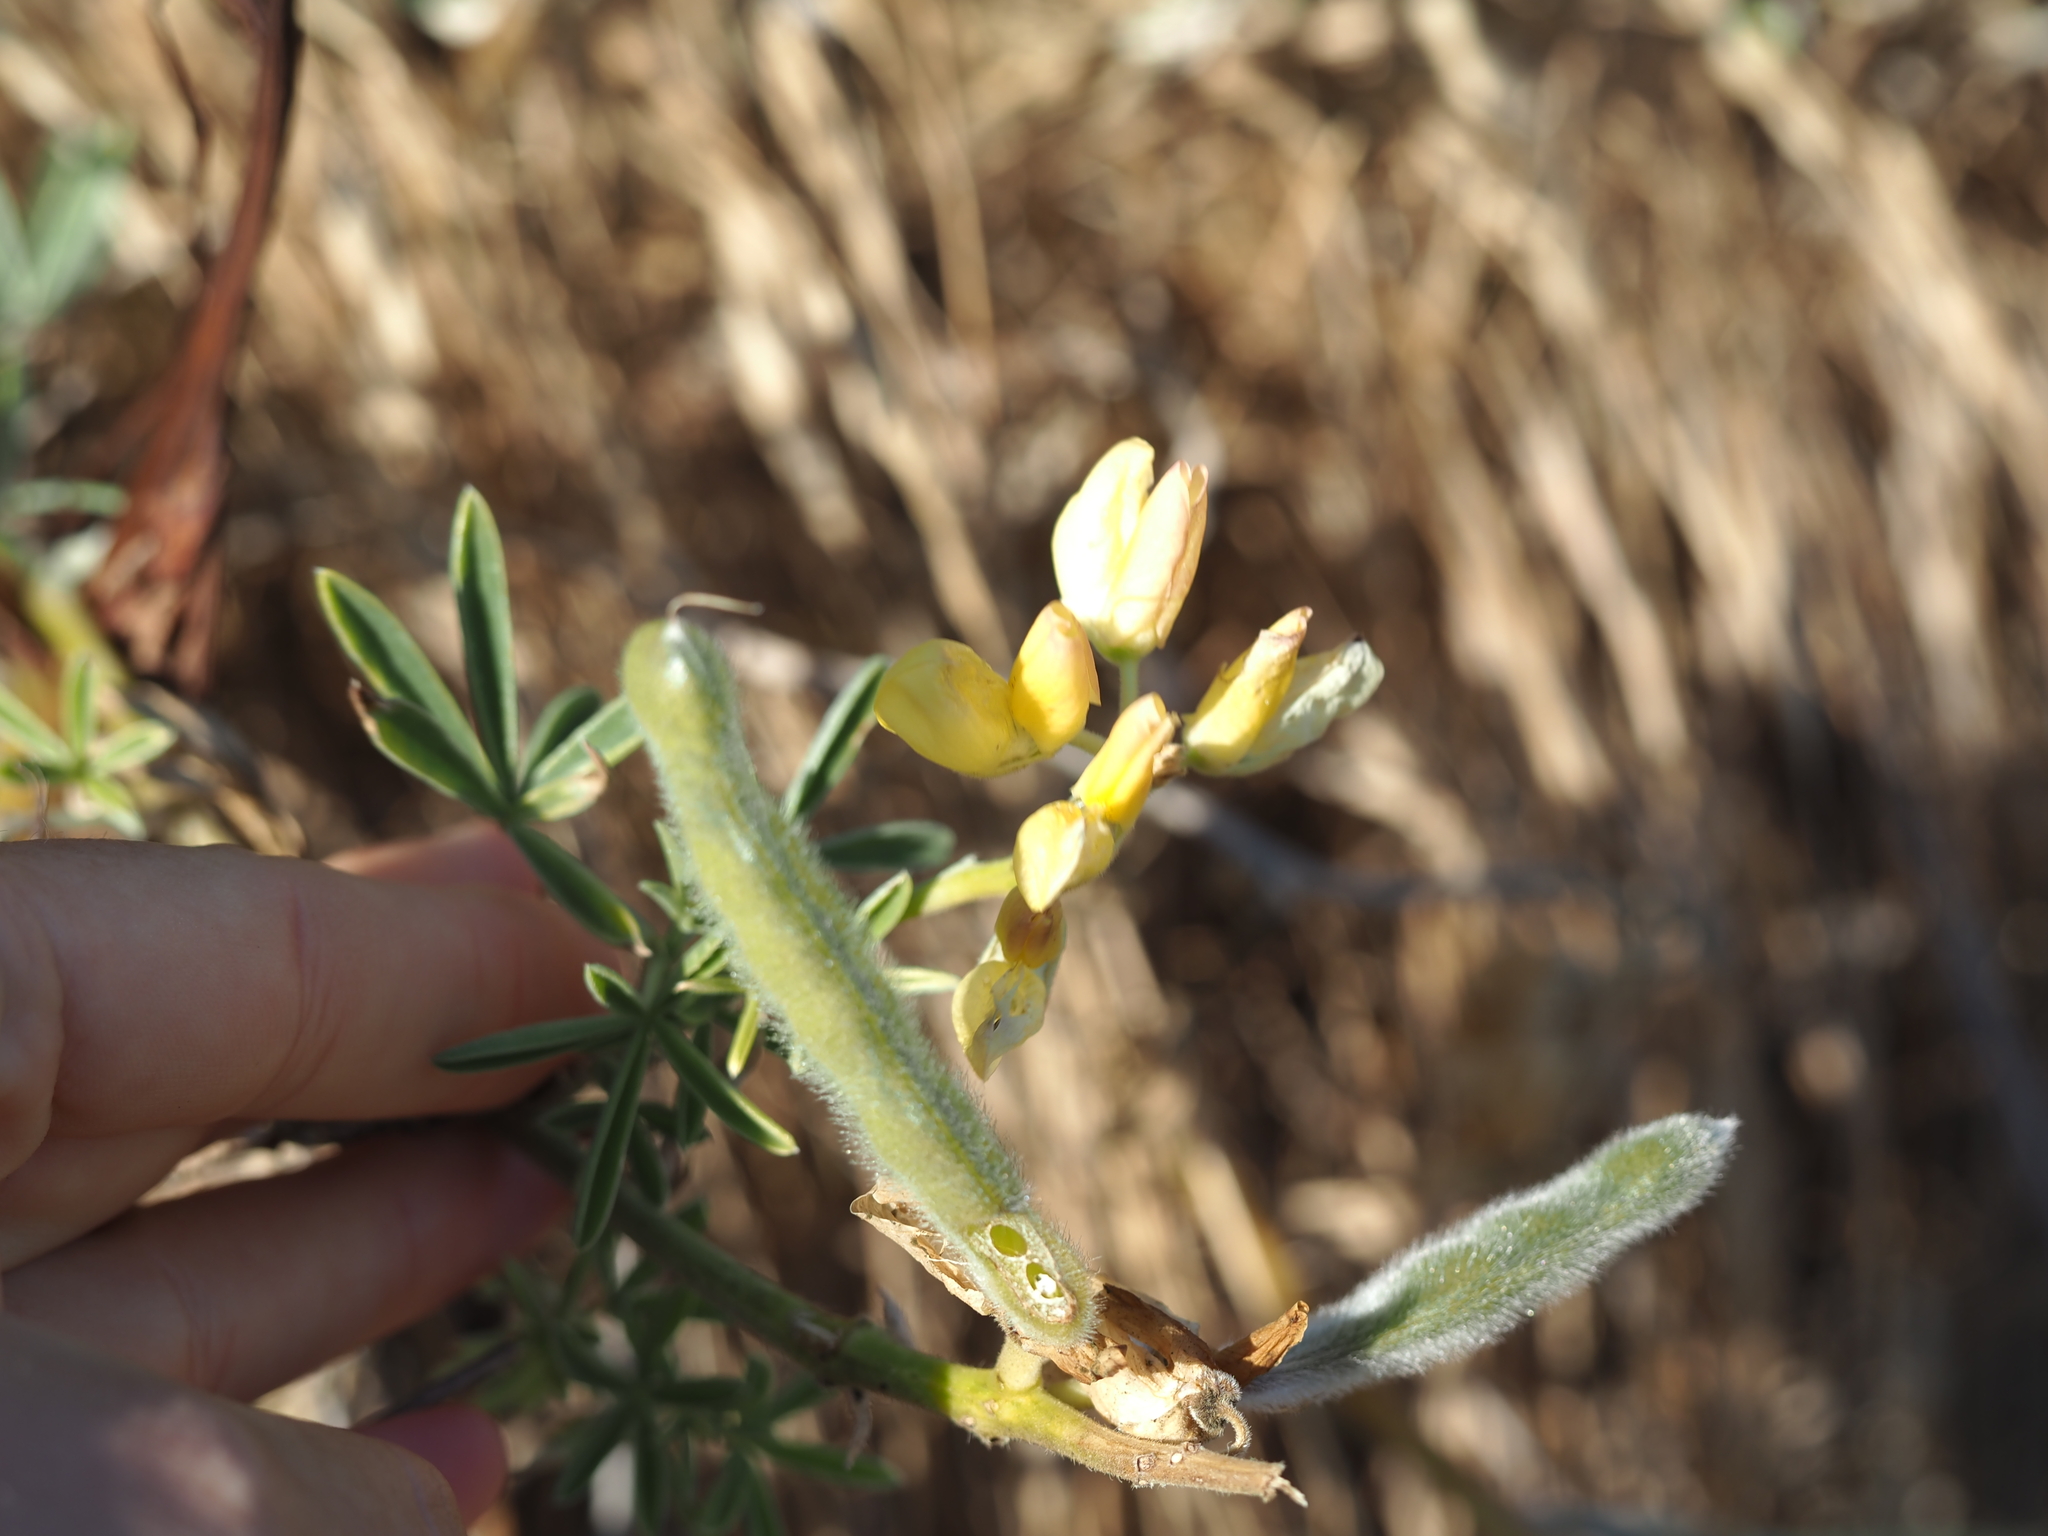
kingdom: Plantae
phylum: Tracheophyta
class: Magnoliopsida
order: Fabales
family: Fabaceae
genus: Lupinus
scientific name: Lupinus arboreus
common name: Yellow bush lupine
